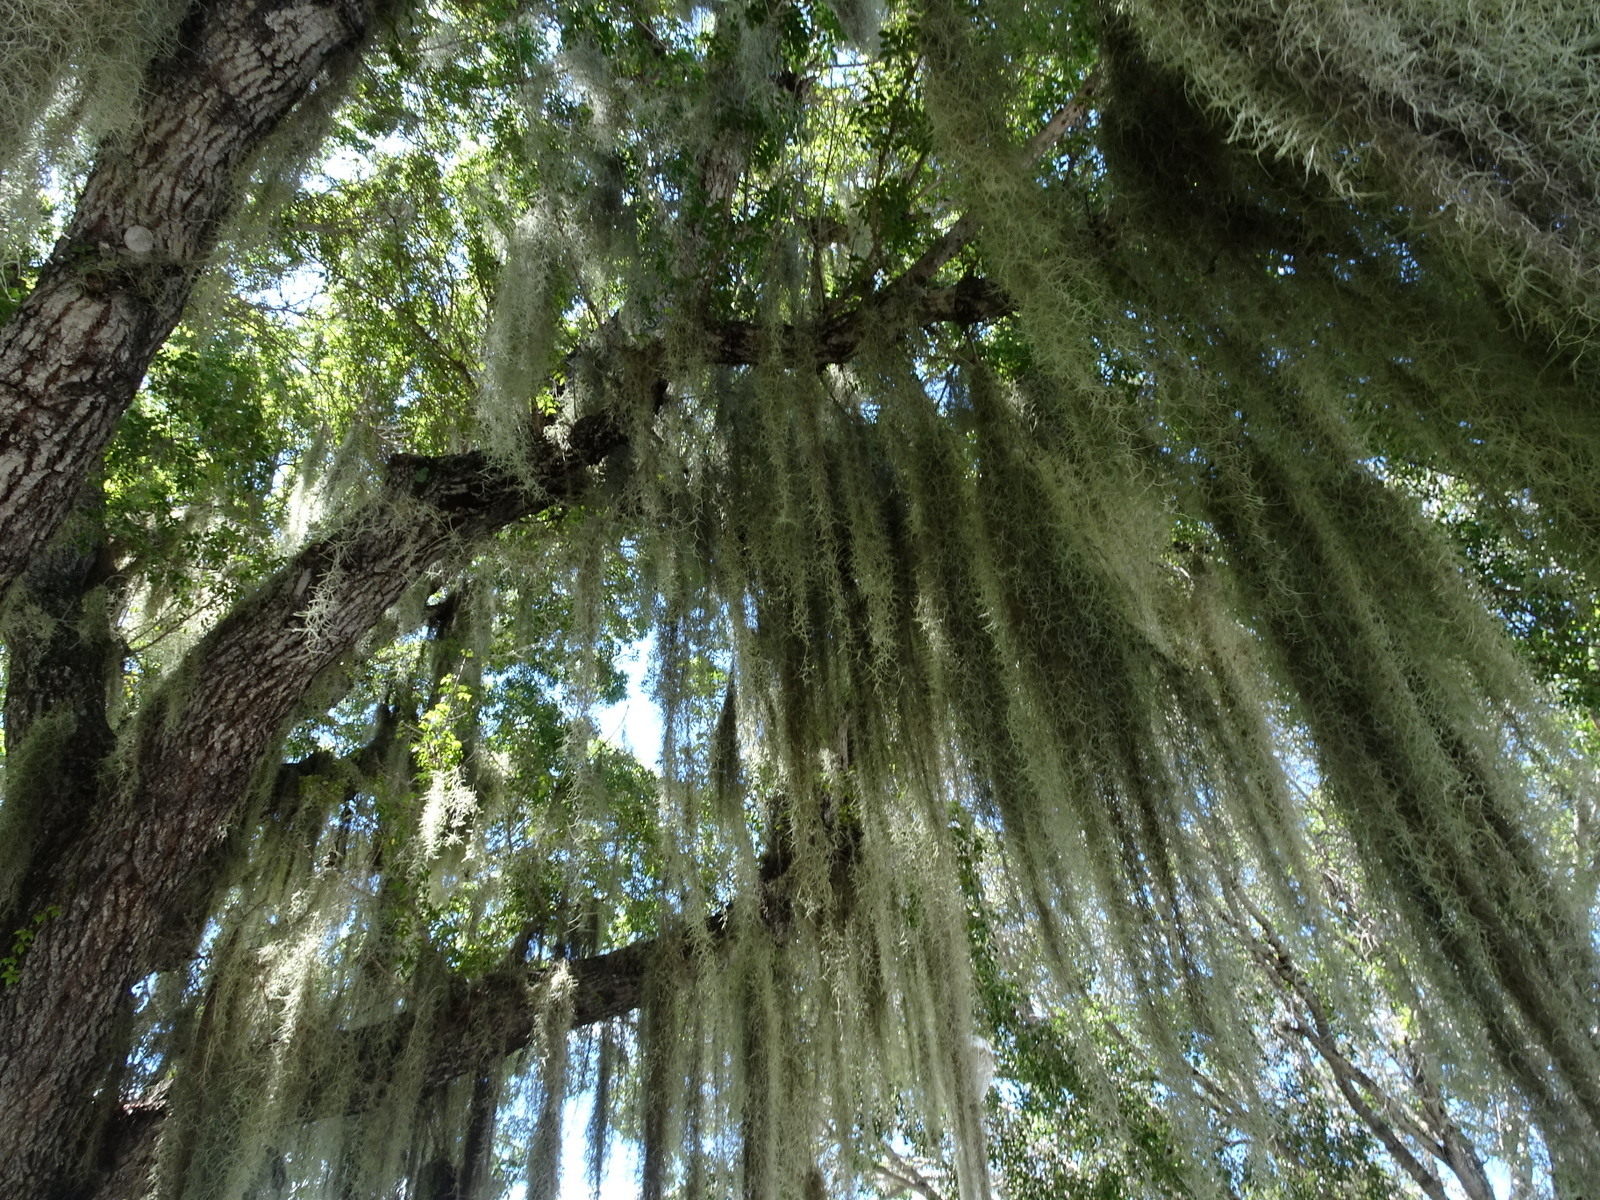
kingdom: Plantae
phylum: Tracheophyta
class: Liliopsida
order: Poales
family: Bromeliaceae
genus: Tillandsia
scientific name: Tillandsia usneoides
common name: Spanish moss
